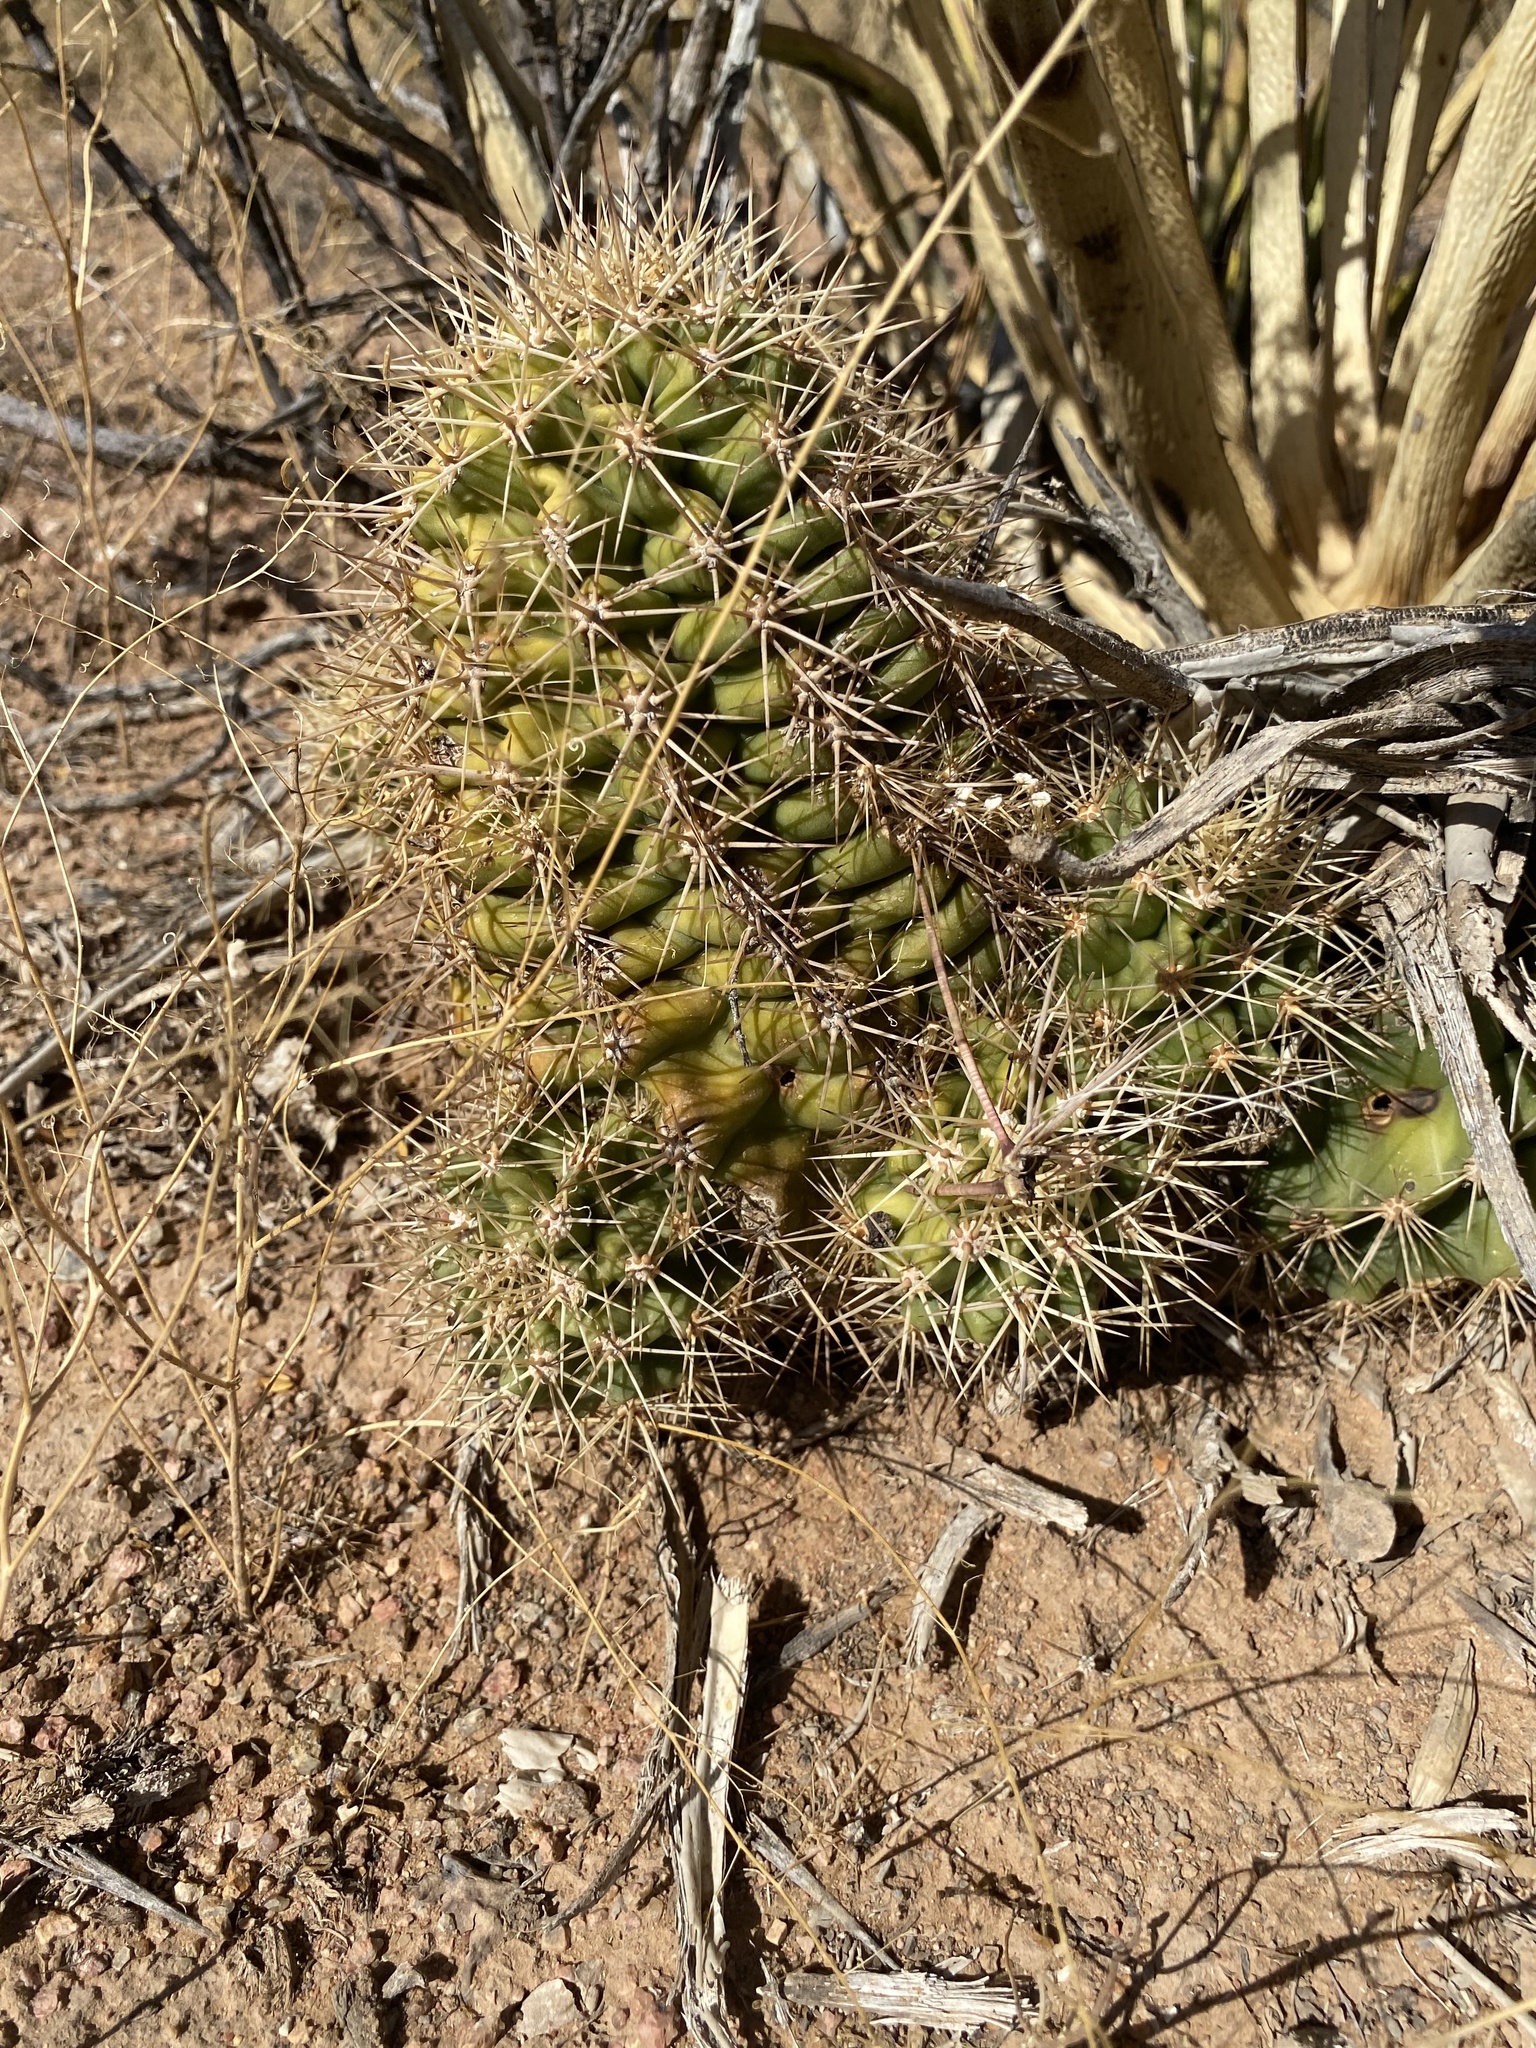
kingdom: Plantae
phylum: Tracheophyta
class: Magnoliopsida
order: Caryophyllales
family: Cactaceae
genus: Echinocereus
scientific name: Echinocereus coccineus
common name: Scarlet hedgehog cactus
